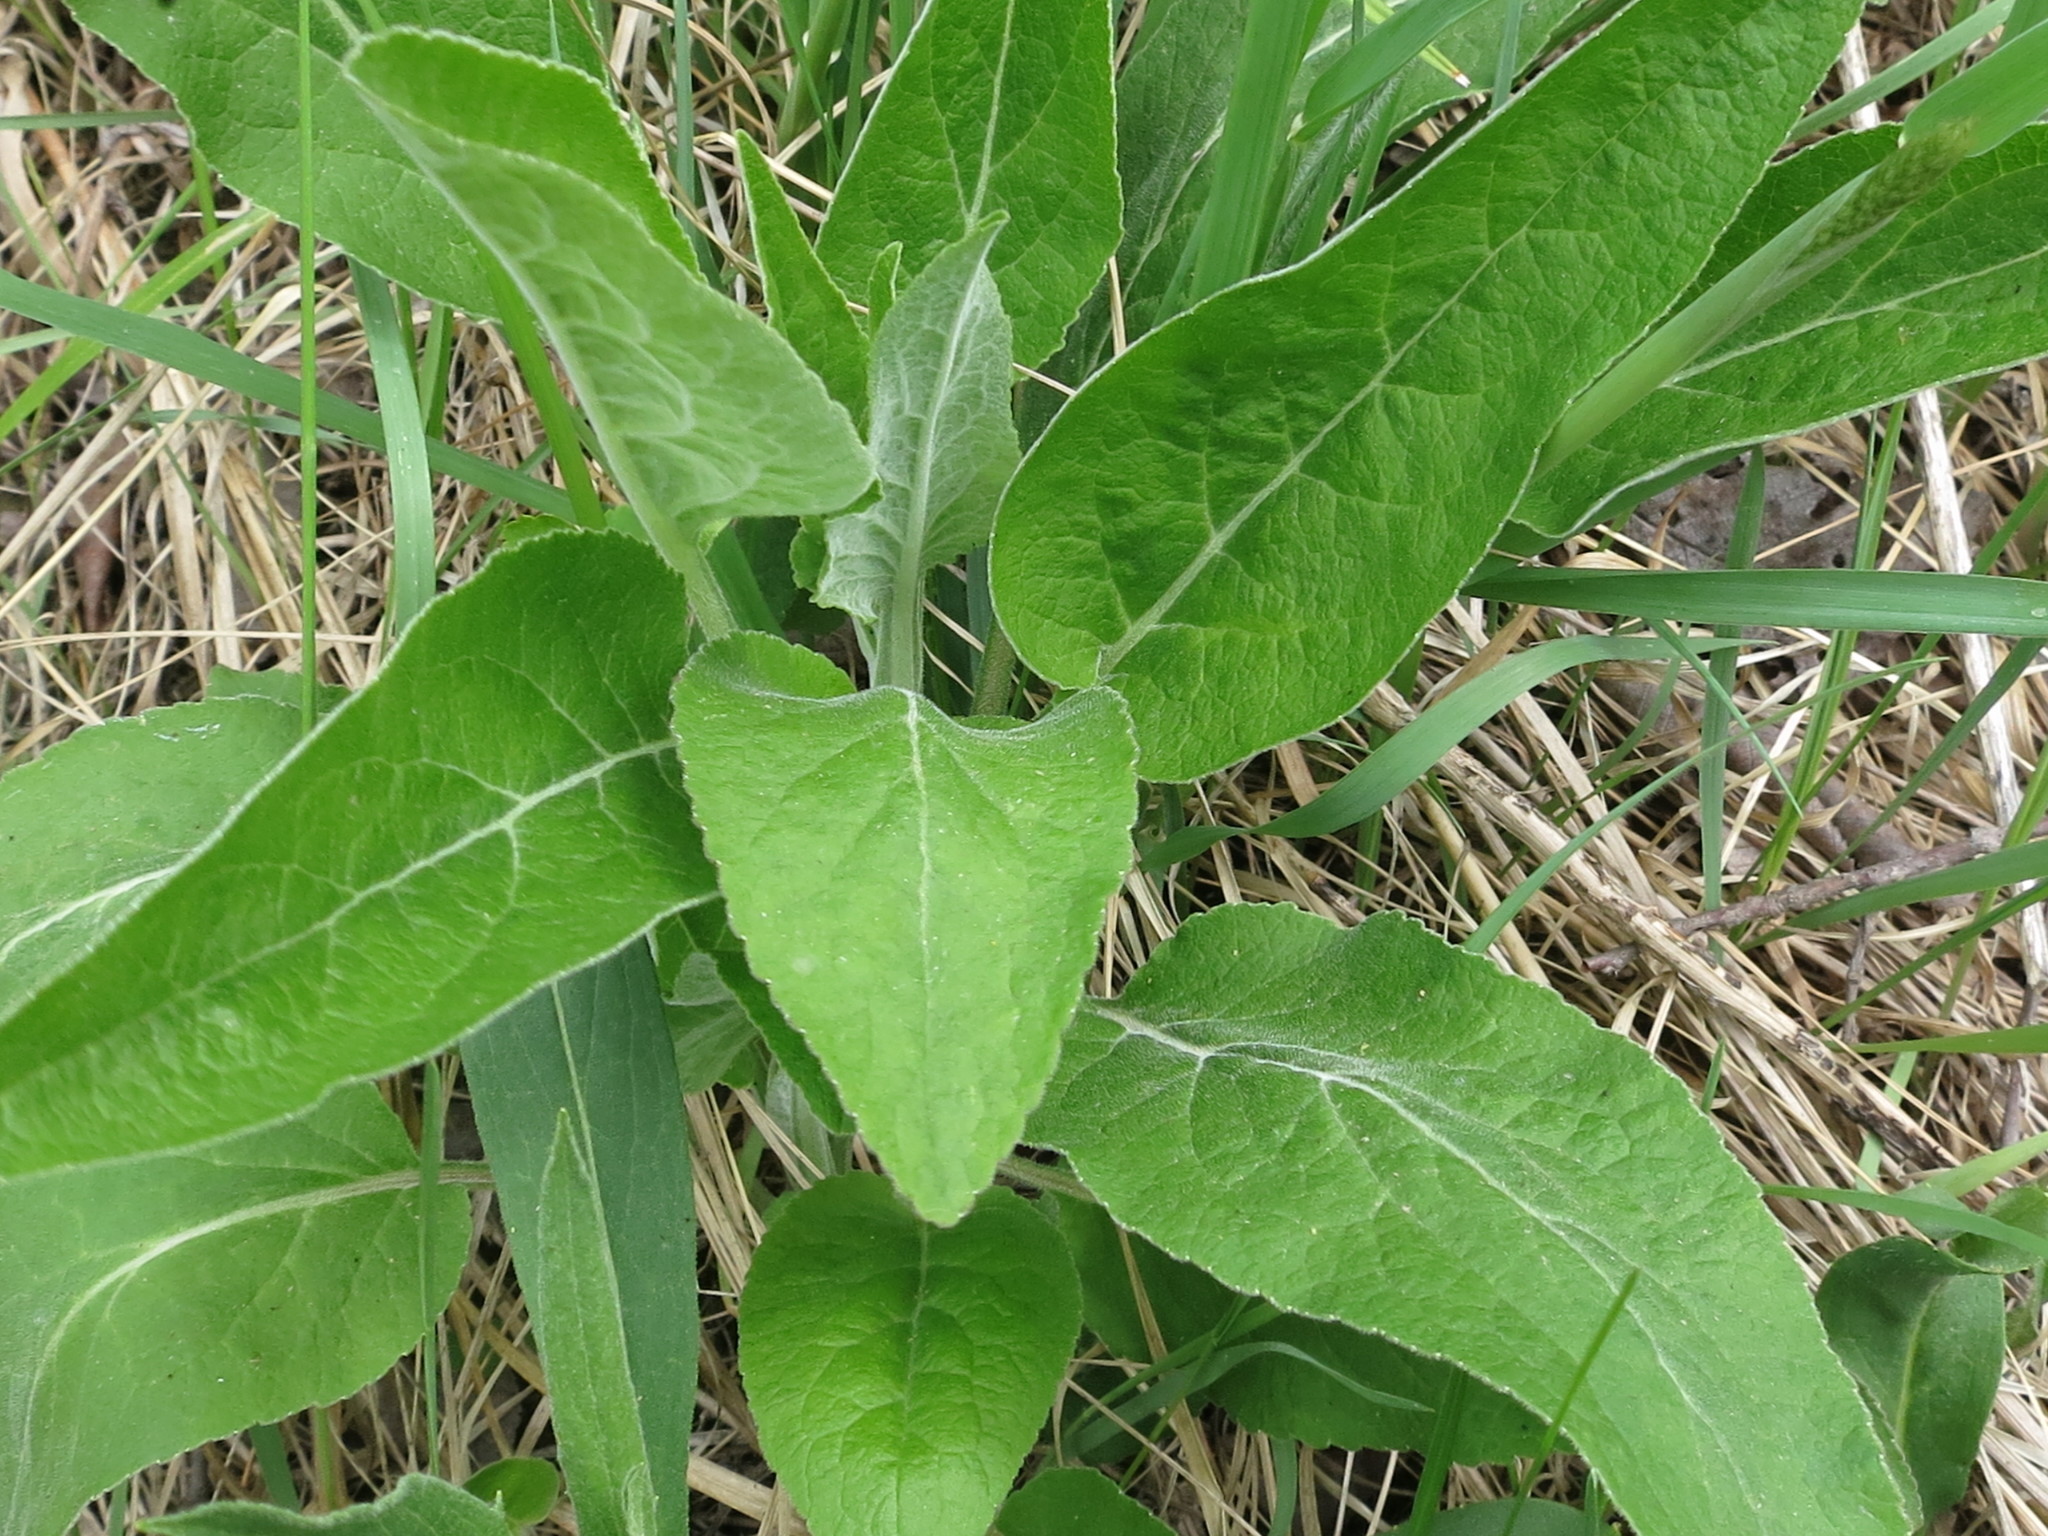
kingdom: Plantae
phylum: Tracheophyta
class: Magnoliopsida
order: Asterales
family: Campanulaceae
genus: Campanula
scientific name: Campanula glomerata
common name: Clustered bellflower
